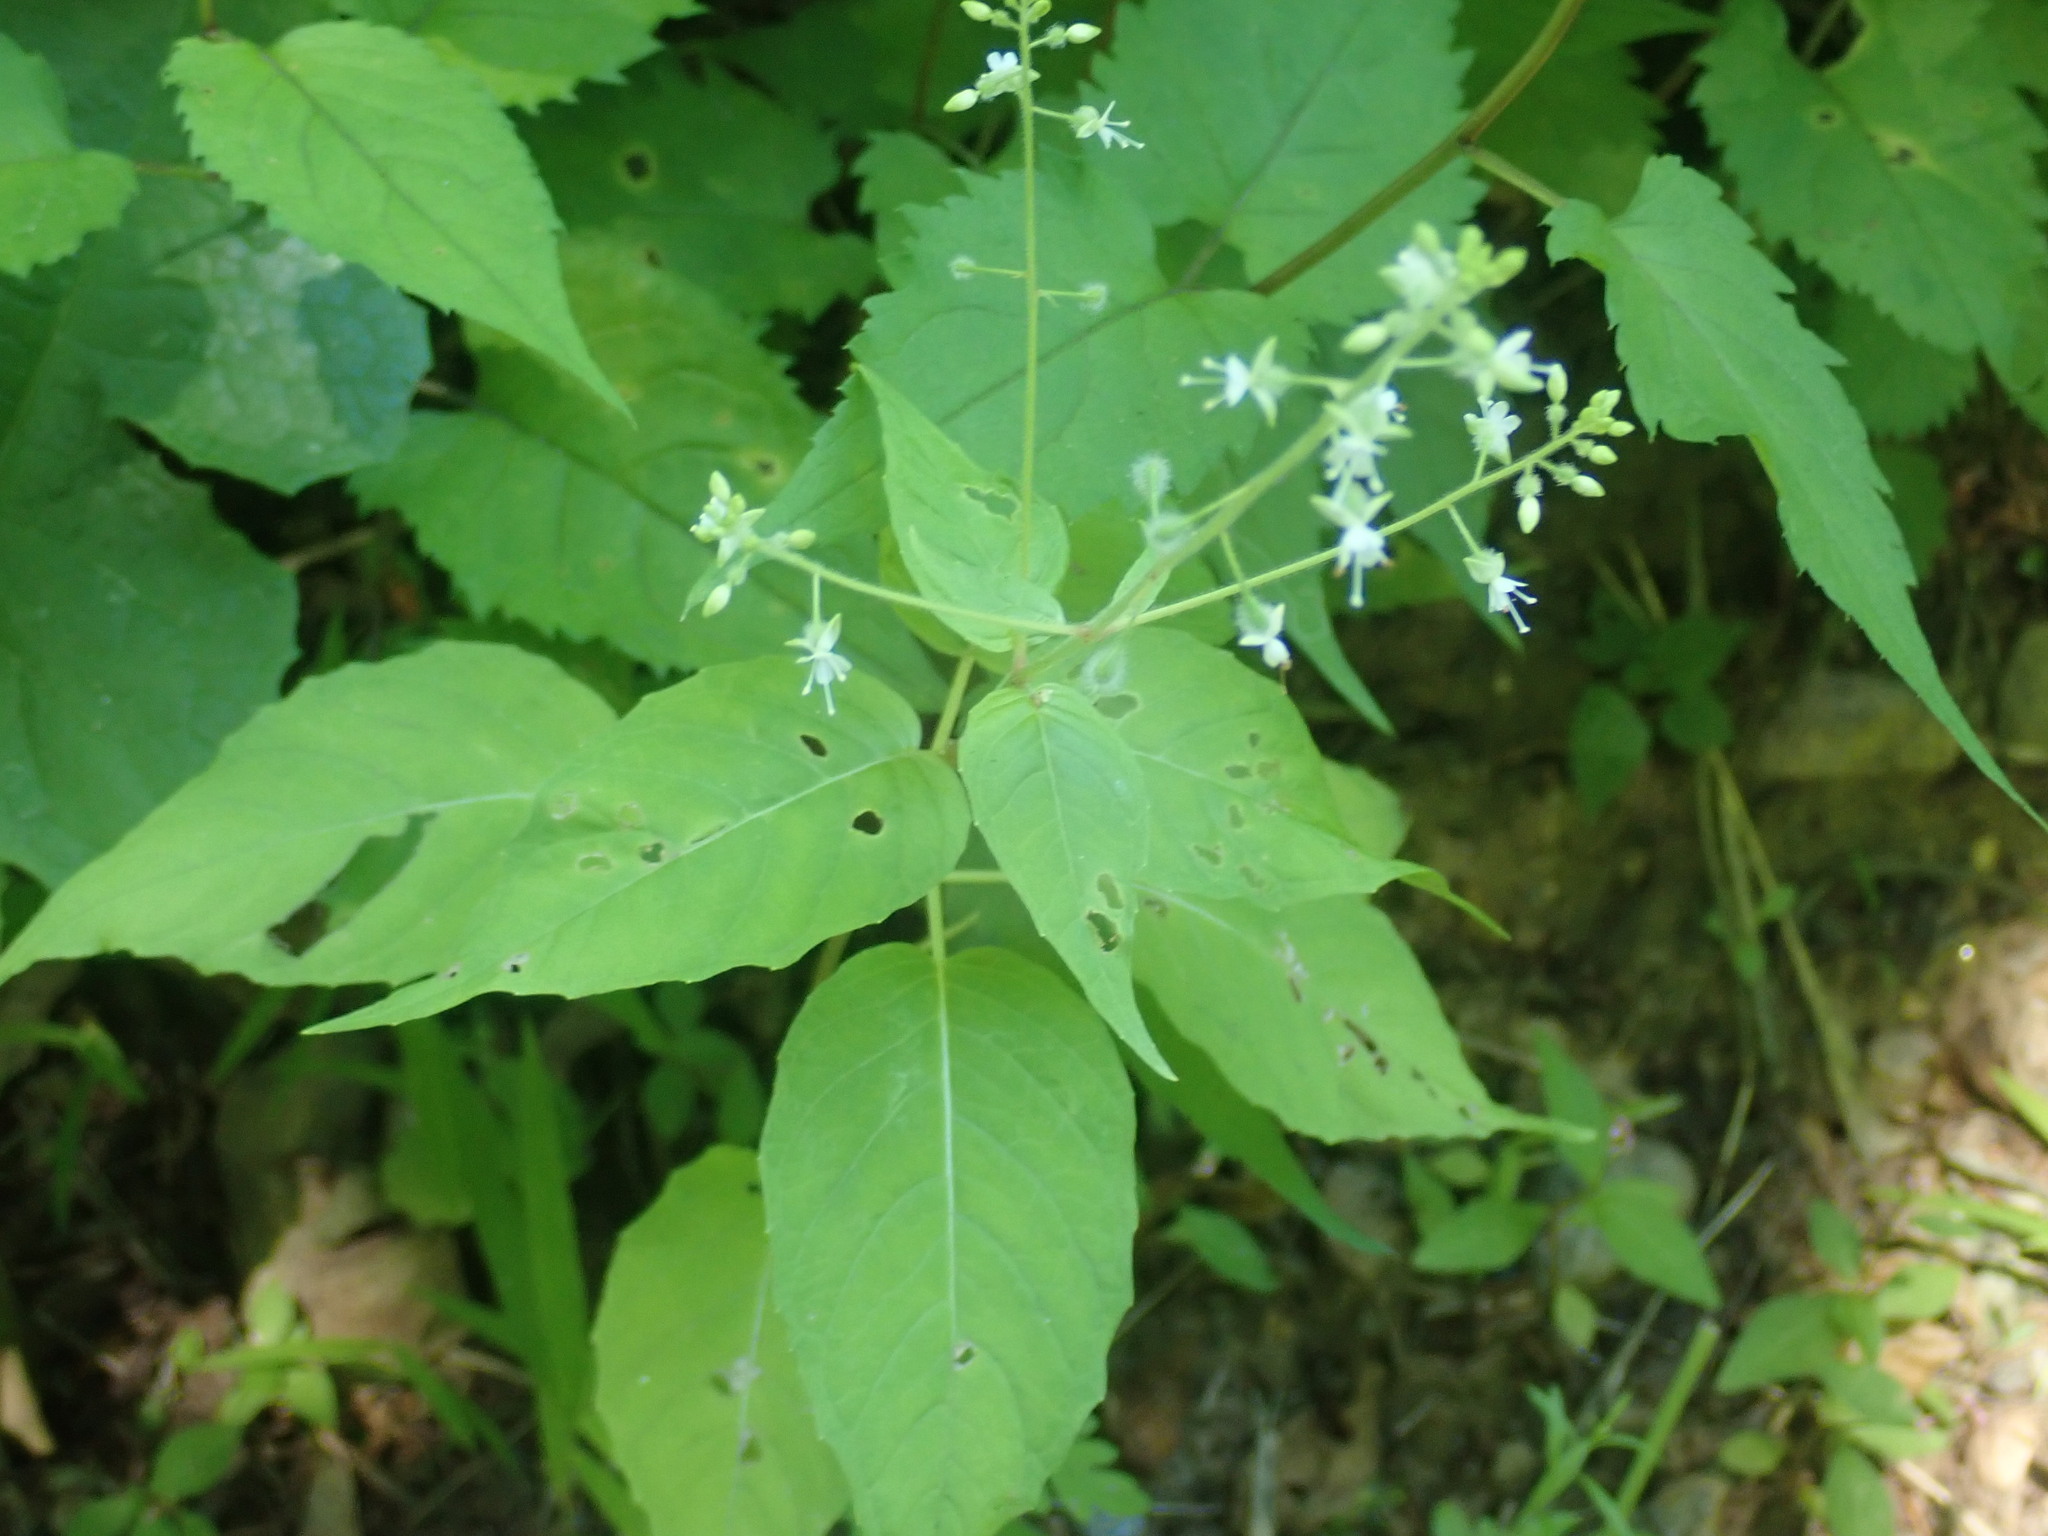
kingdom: Plantae
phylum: Tracheophyta
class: Magnoliopsida
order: Myrtales
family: Onagraceae
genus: Circaea
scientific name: Circaea canadensis
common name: Broad-leaved enchanter's nightshade
